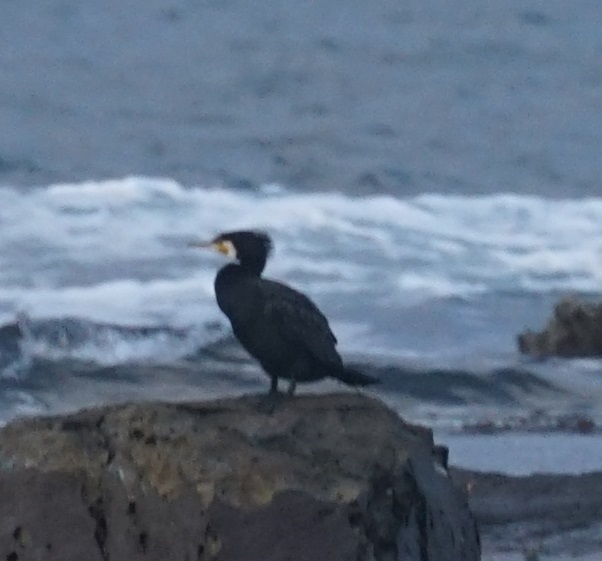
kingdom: Animalia
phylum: Chordata
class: Aves
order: Suliformes
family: Phalacrocoracidae
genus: Phalacrocorax
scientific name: Phalacrocorax carbo
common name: Great cormorant
